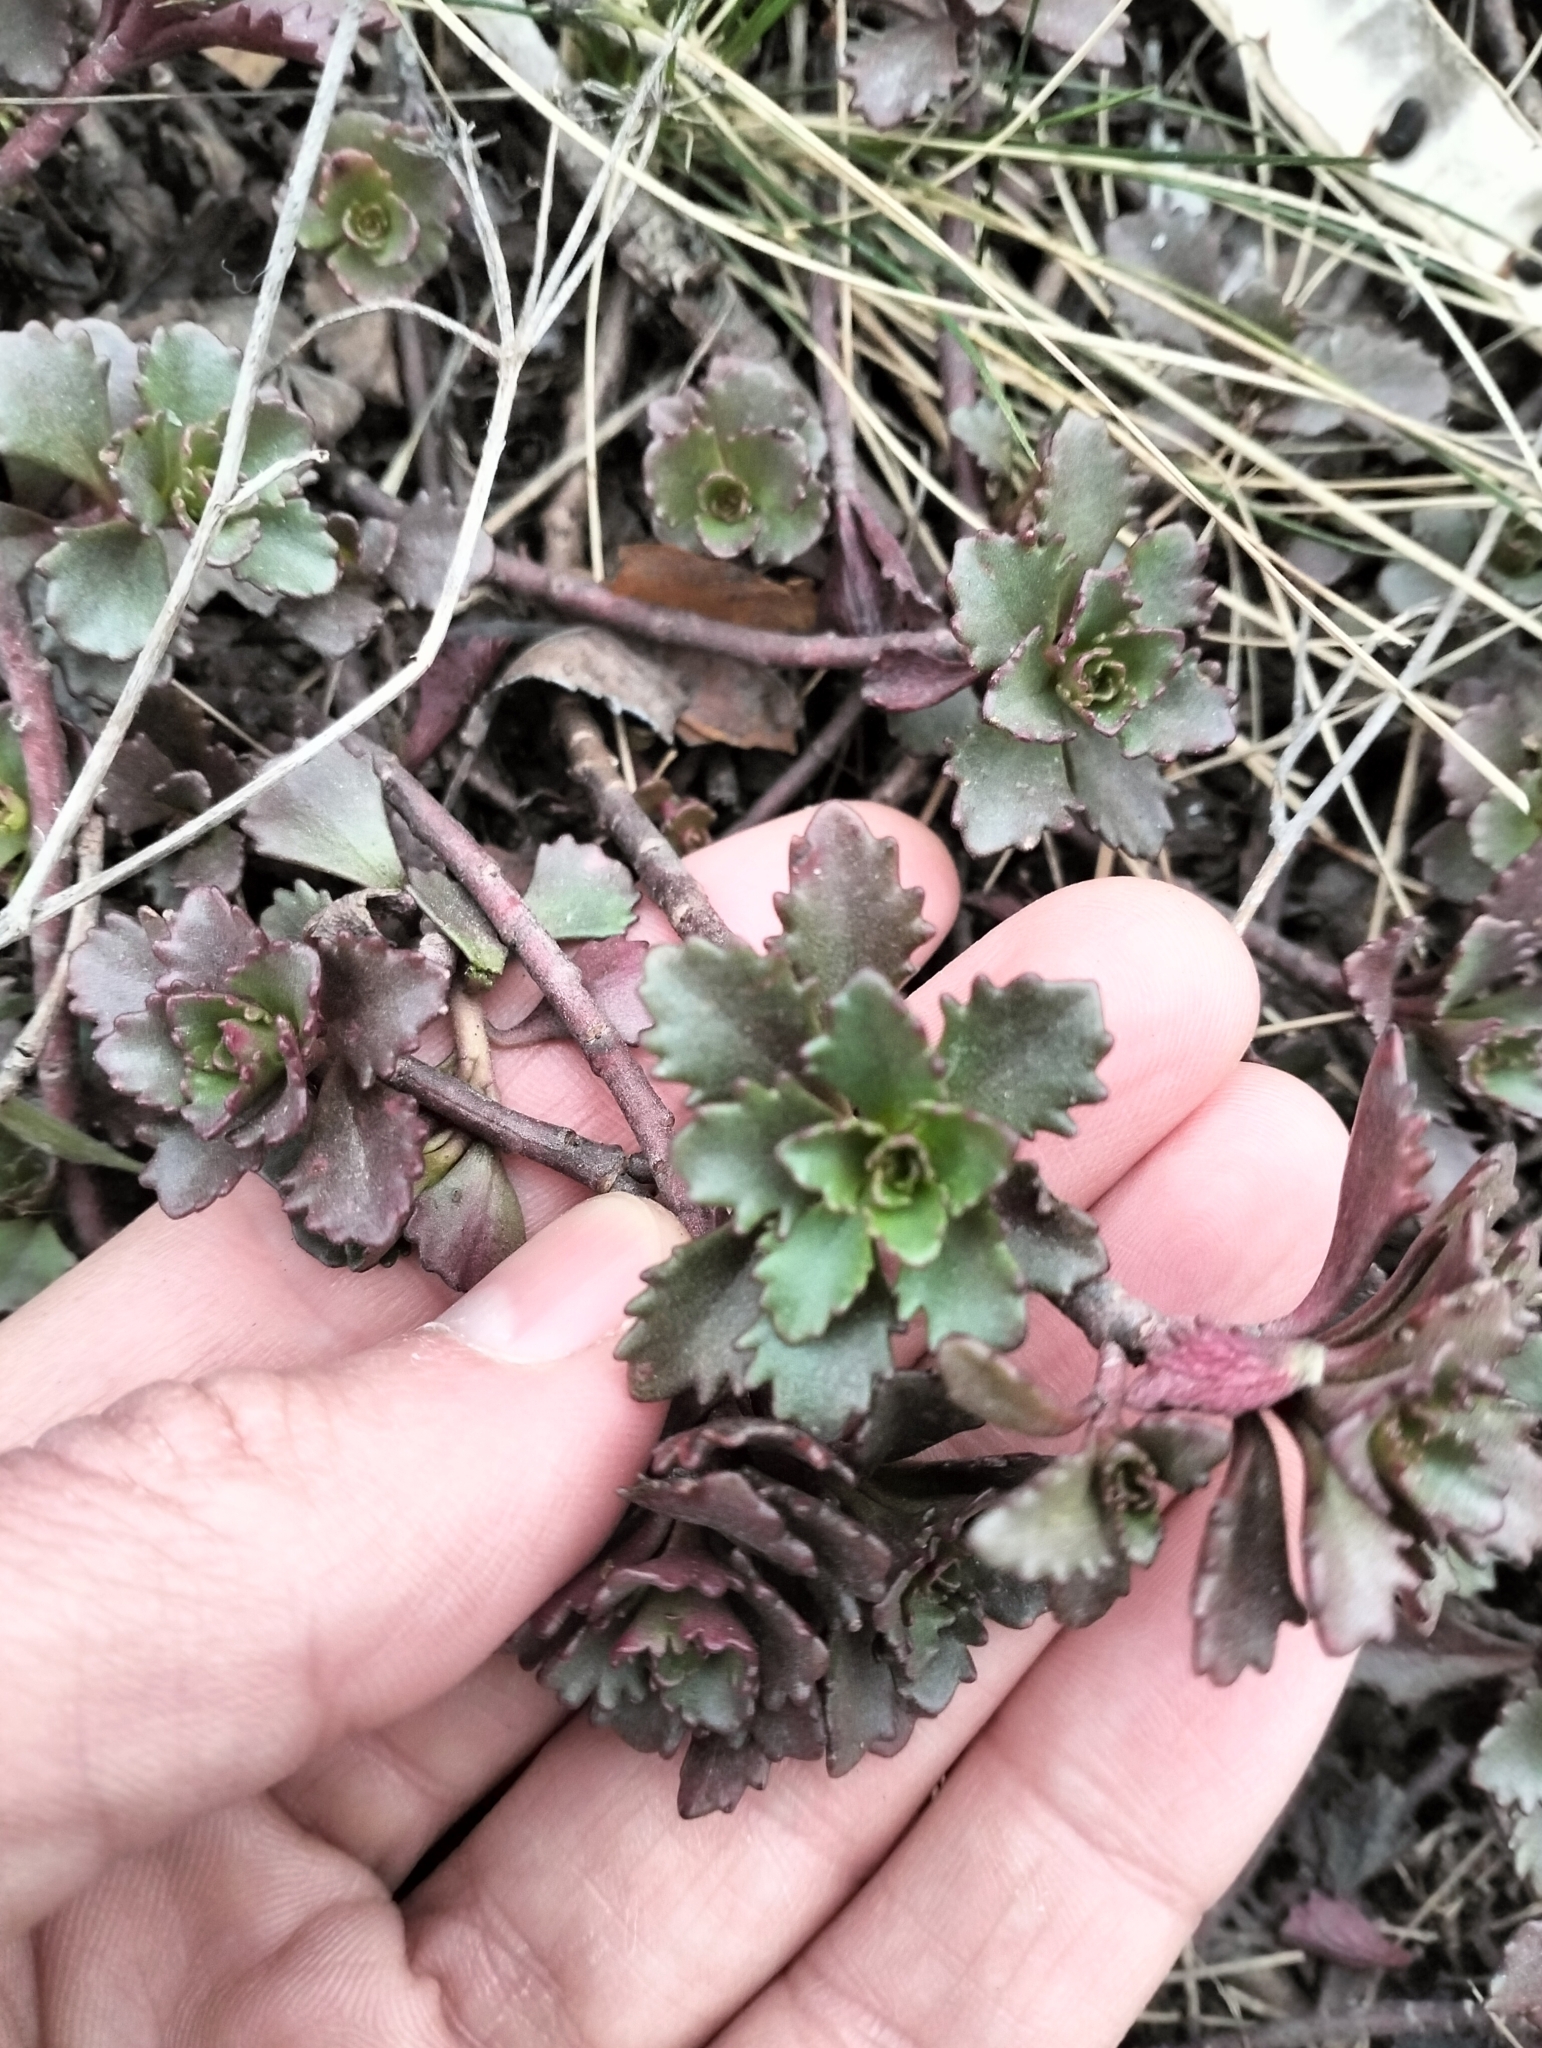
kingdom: Plantae
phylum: Tracheophyta
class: Magnoliopsida
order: Saxifragales
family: Crassulaceae
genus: Phedimus
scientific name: Phedimus hybridus
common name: Hybrid stonecrop
